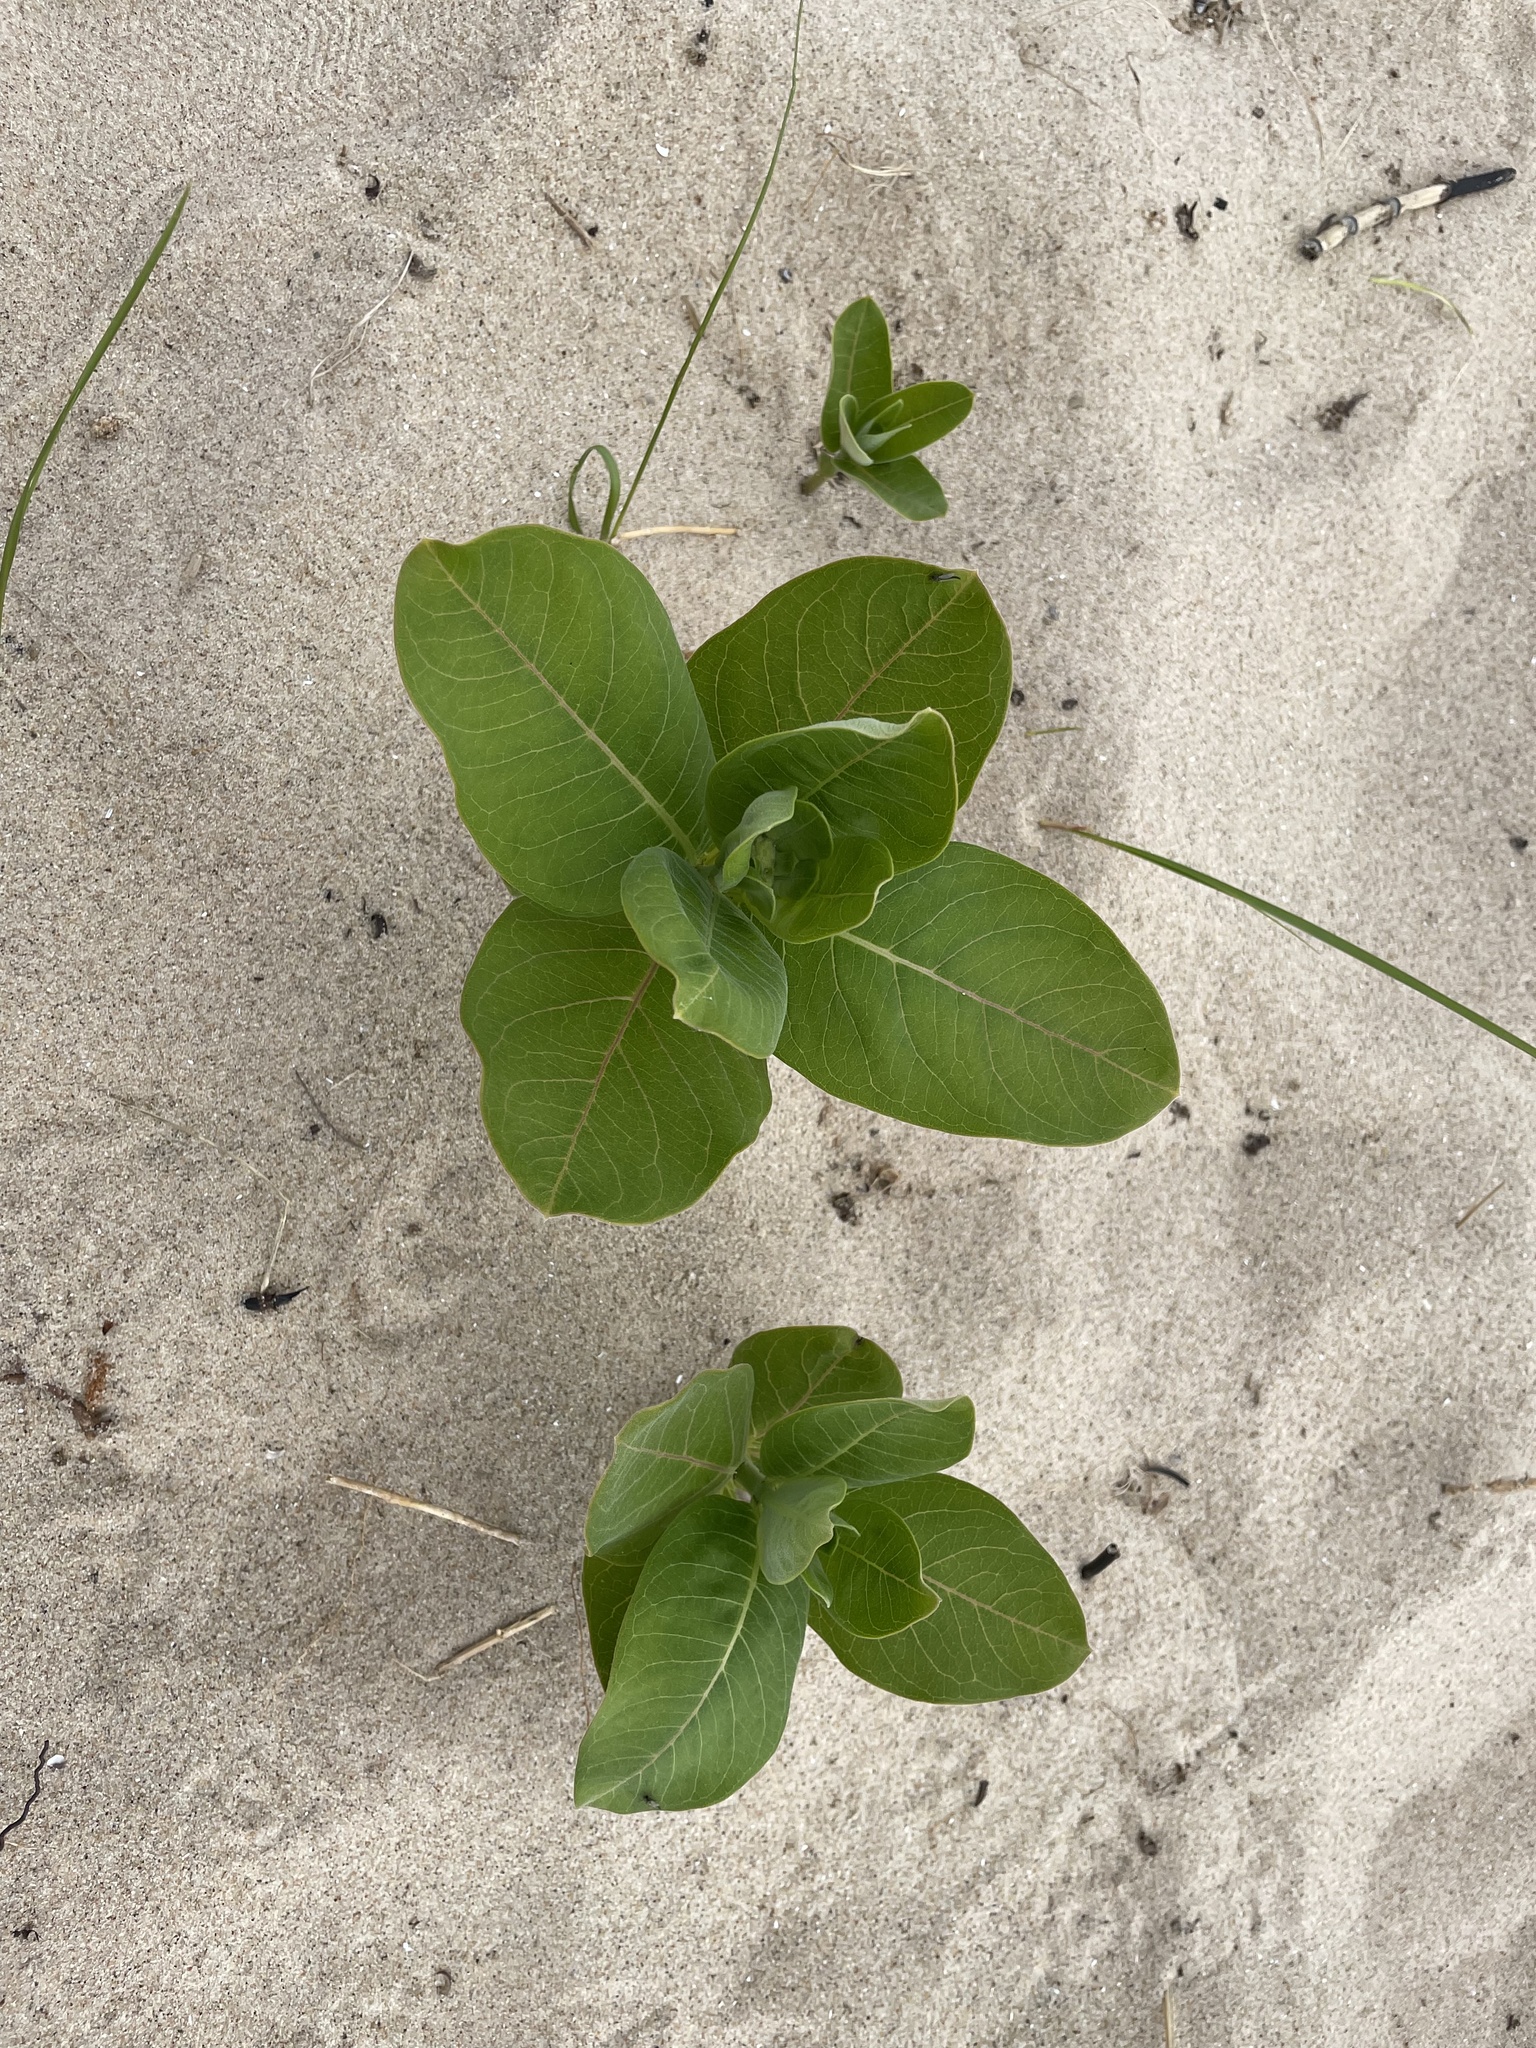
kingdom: Plantae
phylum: Tracheophyta
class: Magnoliopsida
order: Gentianales
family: Apocynaceae
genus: Asclepias
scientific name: Asclepias syriaca
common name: Common milkweed
